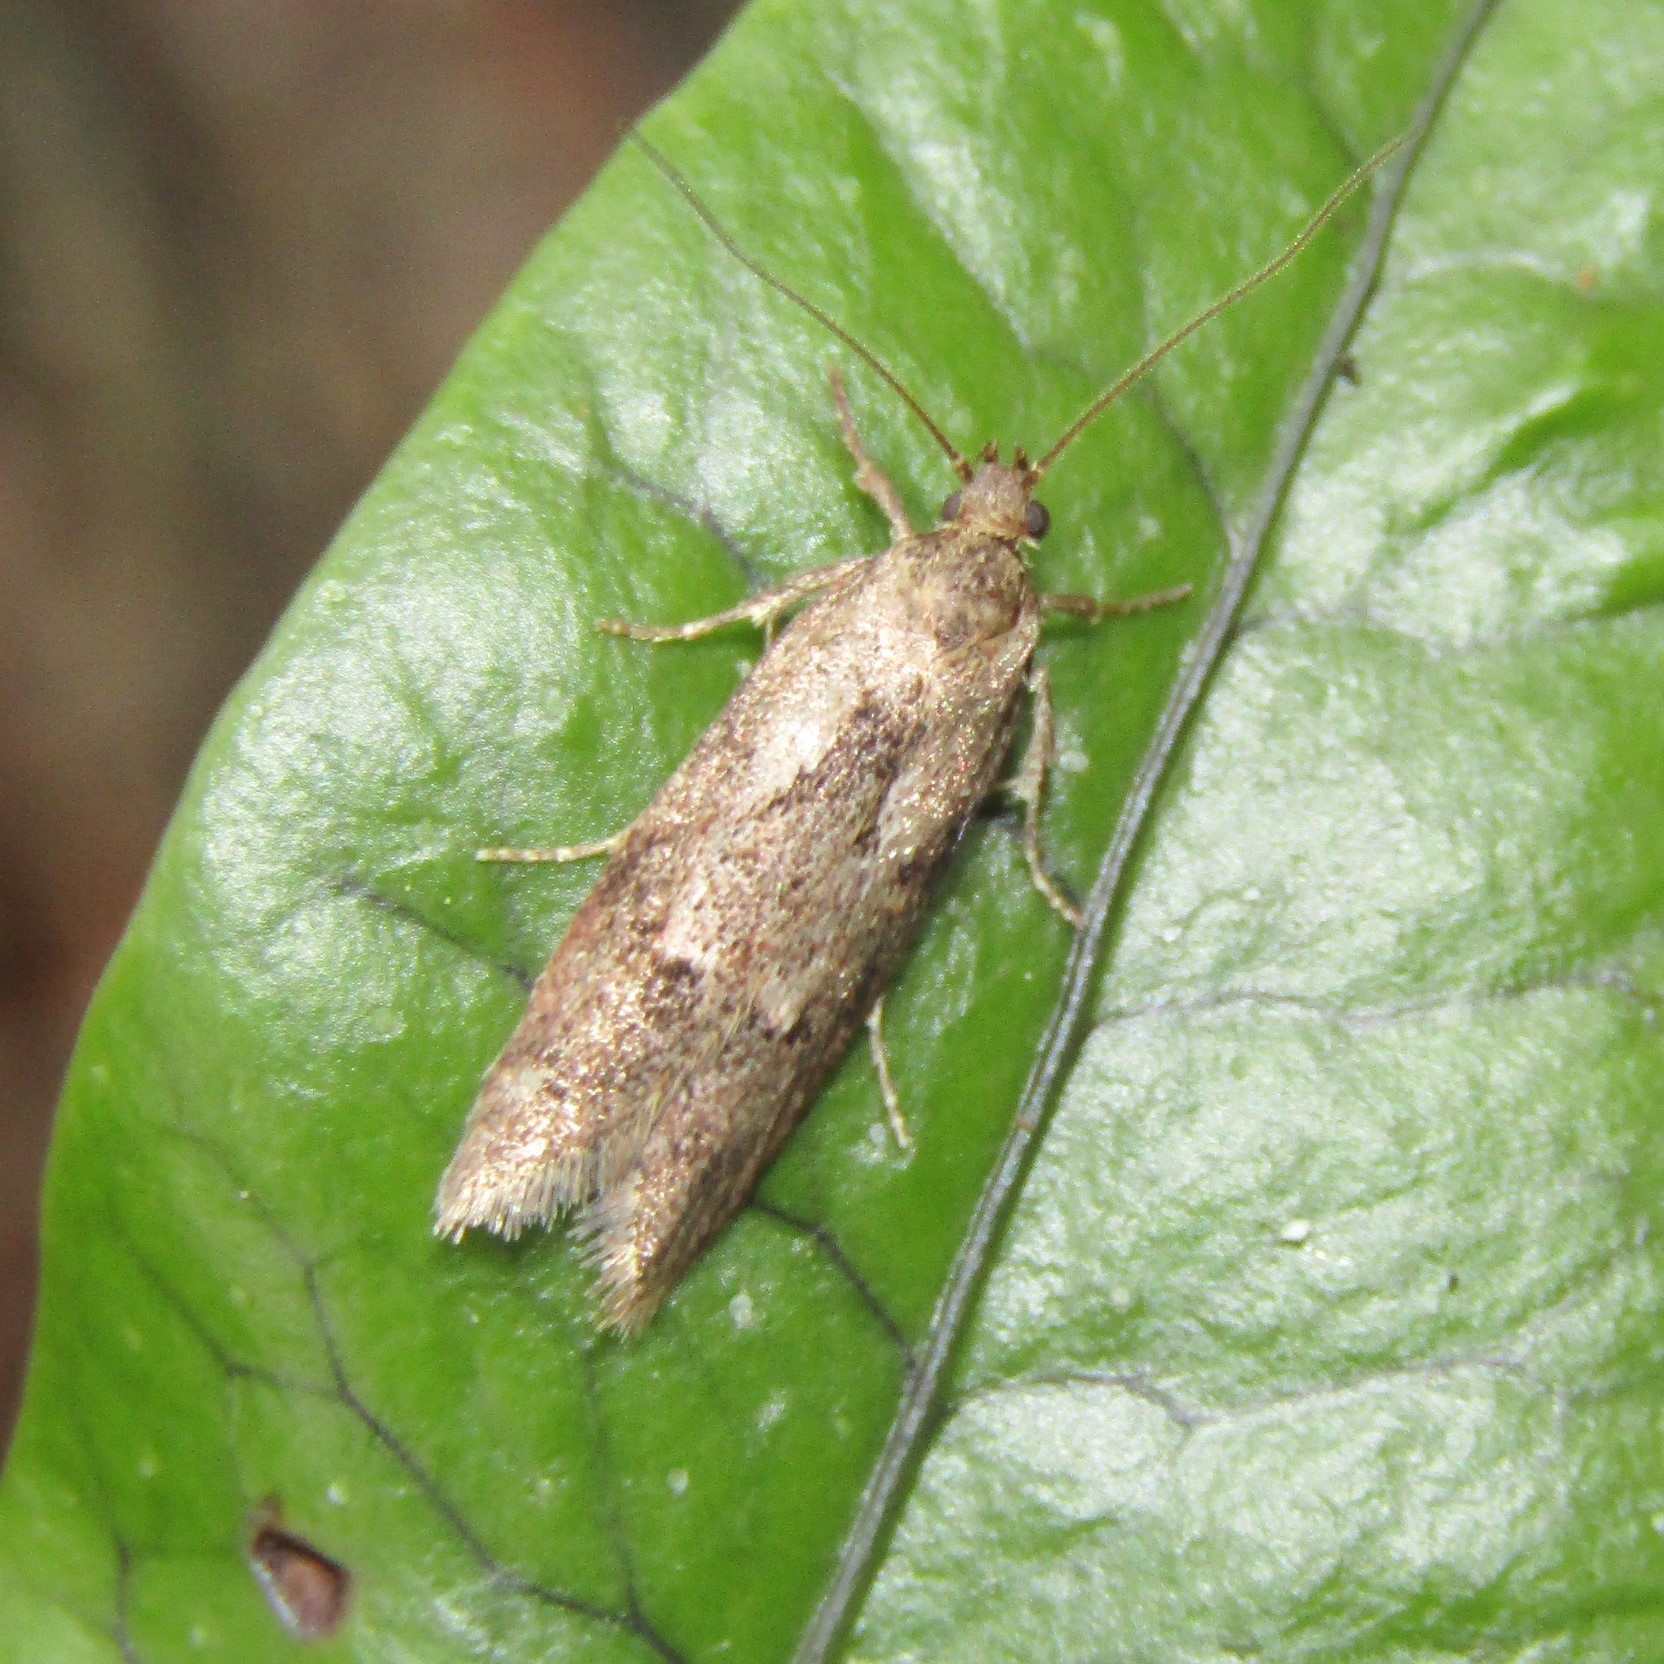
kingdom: Animalia
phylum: Arthropoda
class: Insecta
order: Lepidoptera
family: Oecophoridae
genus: Chersadaula
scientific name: Chersadaula ochrogastra
